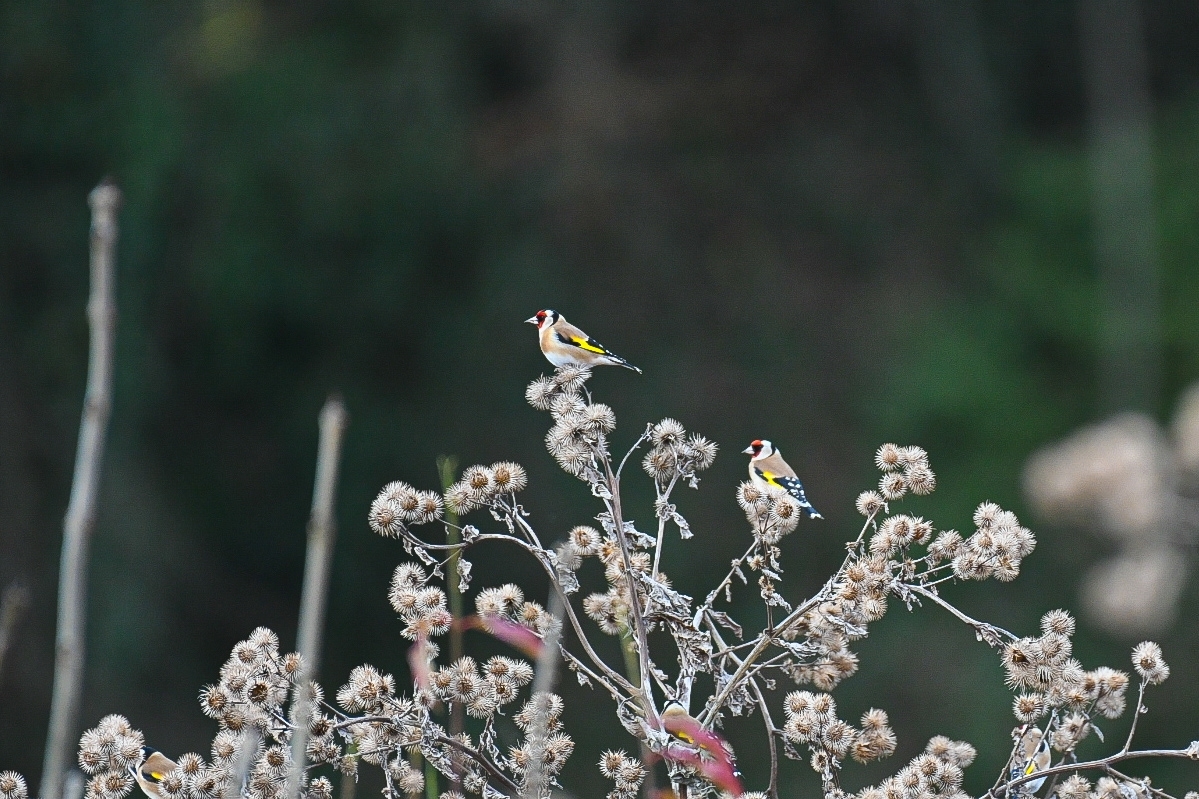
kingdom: Animalia
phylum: Chordata
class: Aves
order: Passeriformes
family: Fringillidae
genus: Carduelis
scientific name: Carduelis carduelis
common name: European goldfinch
